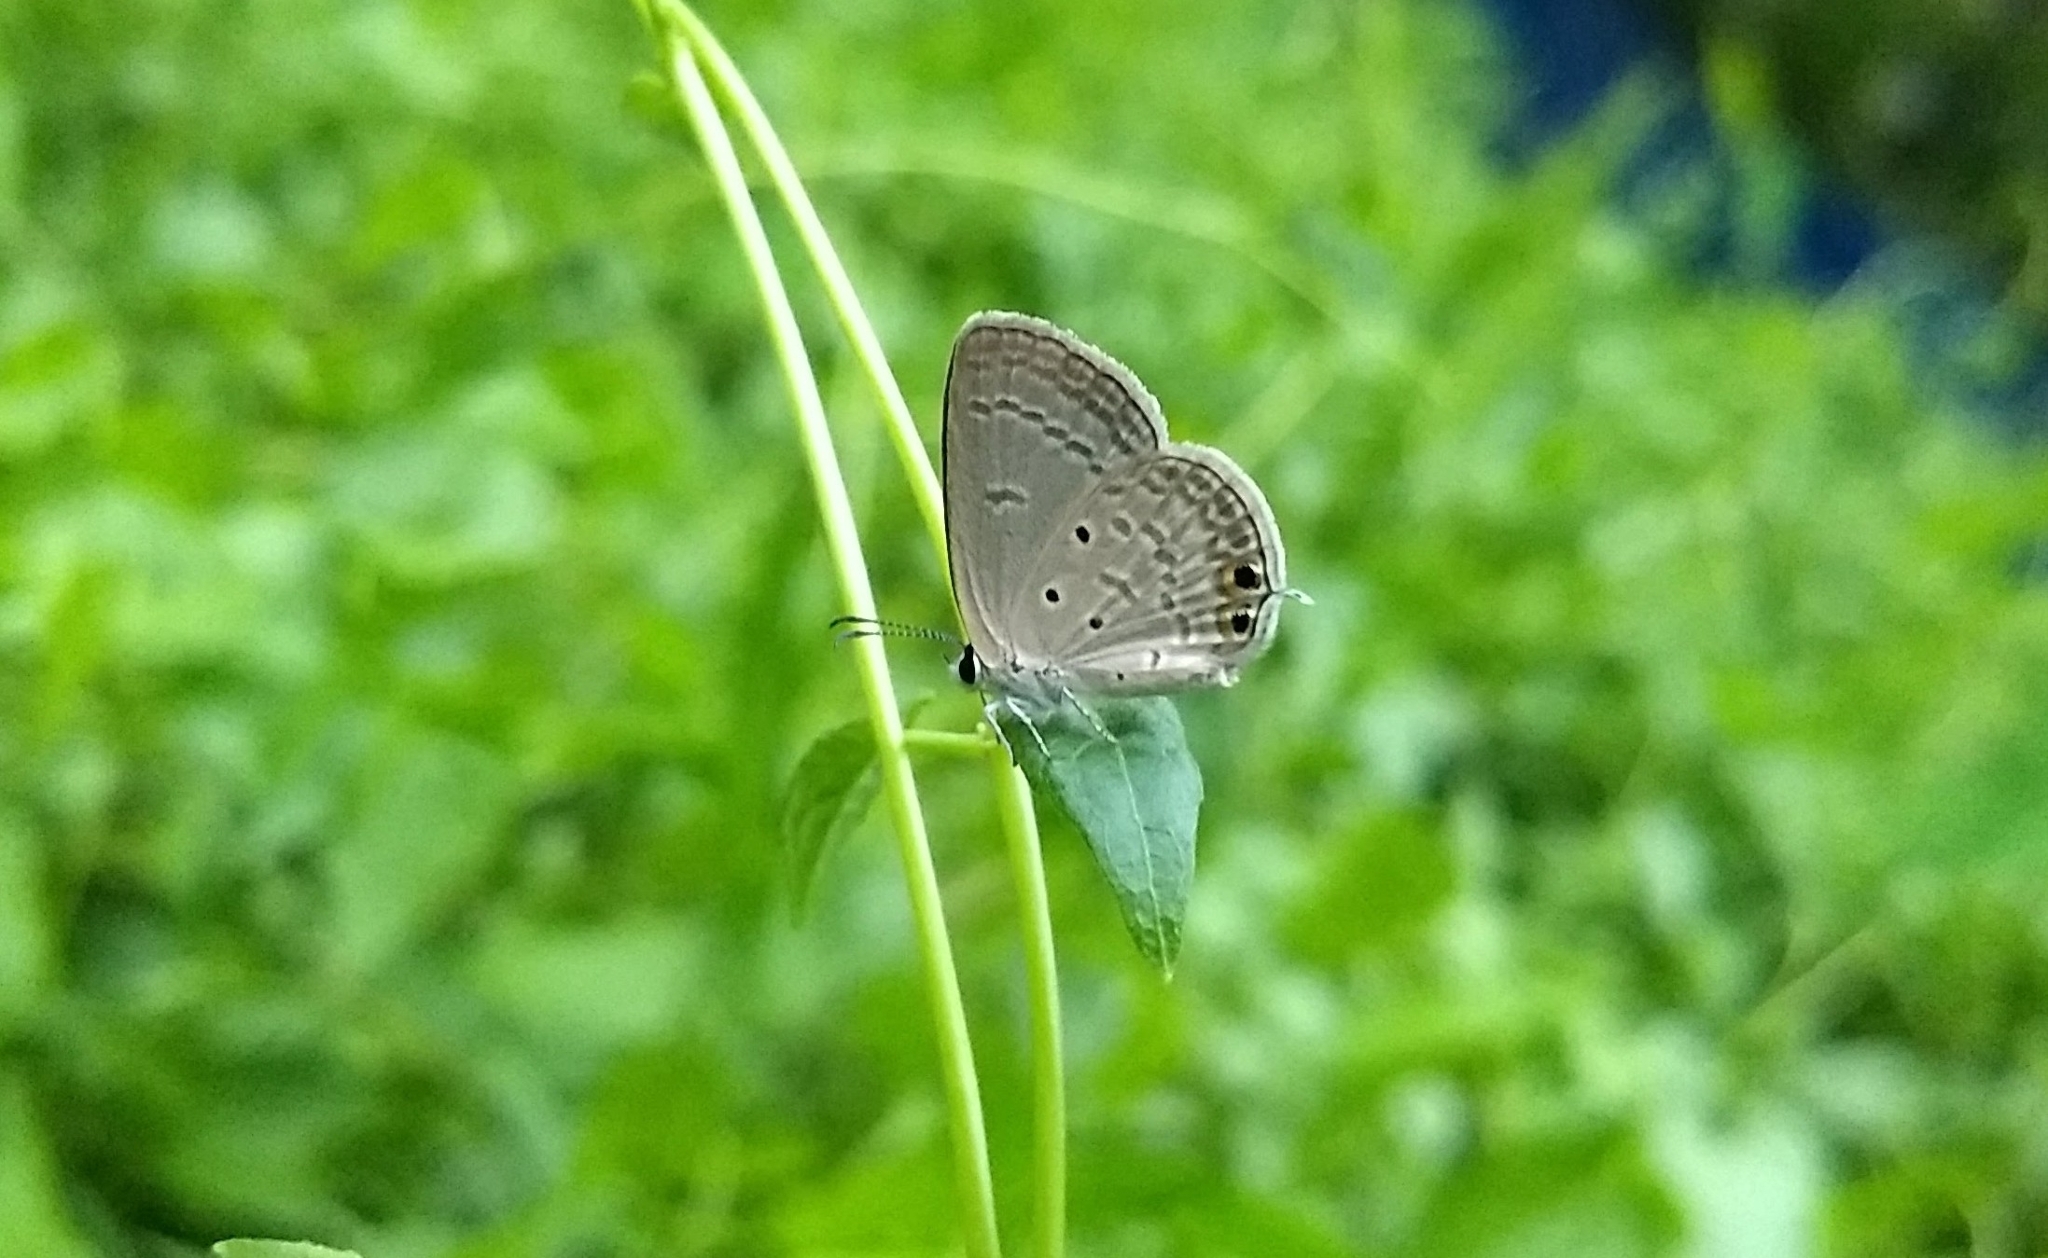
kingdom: Animalia
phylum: Arthropoda
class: Insecta
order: Lepidoptera
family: Lycaenidae
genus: Euchrysops
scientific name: Euchrysops cnejus
